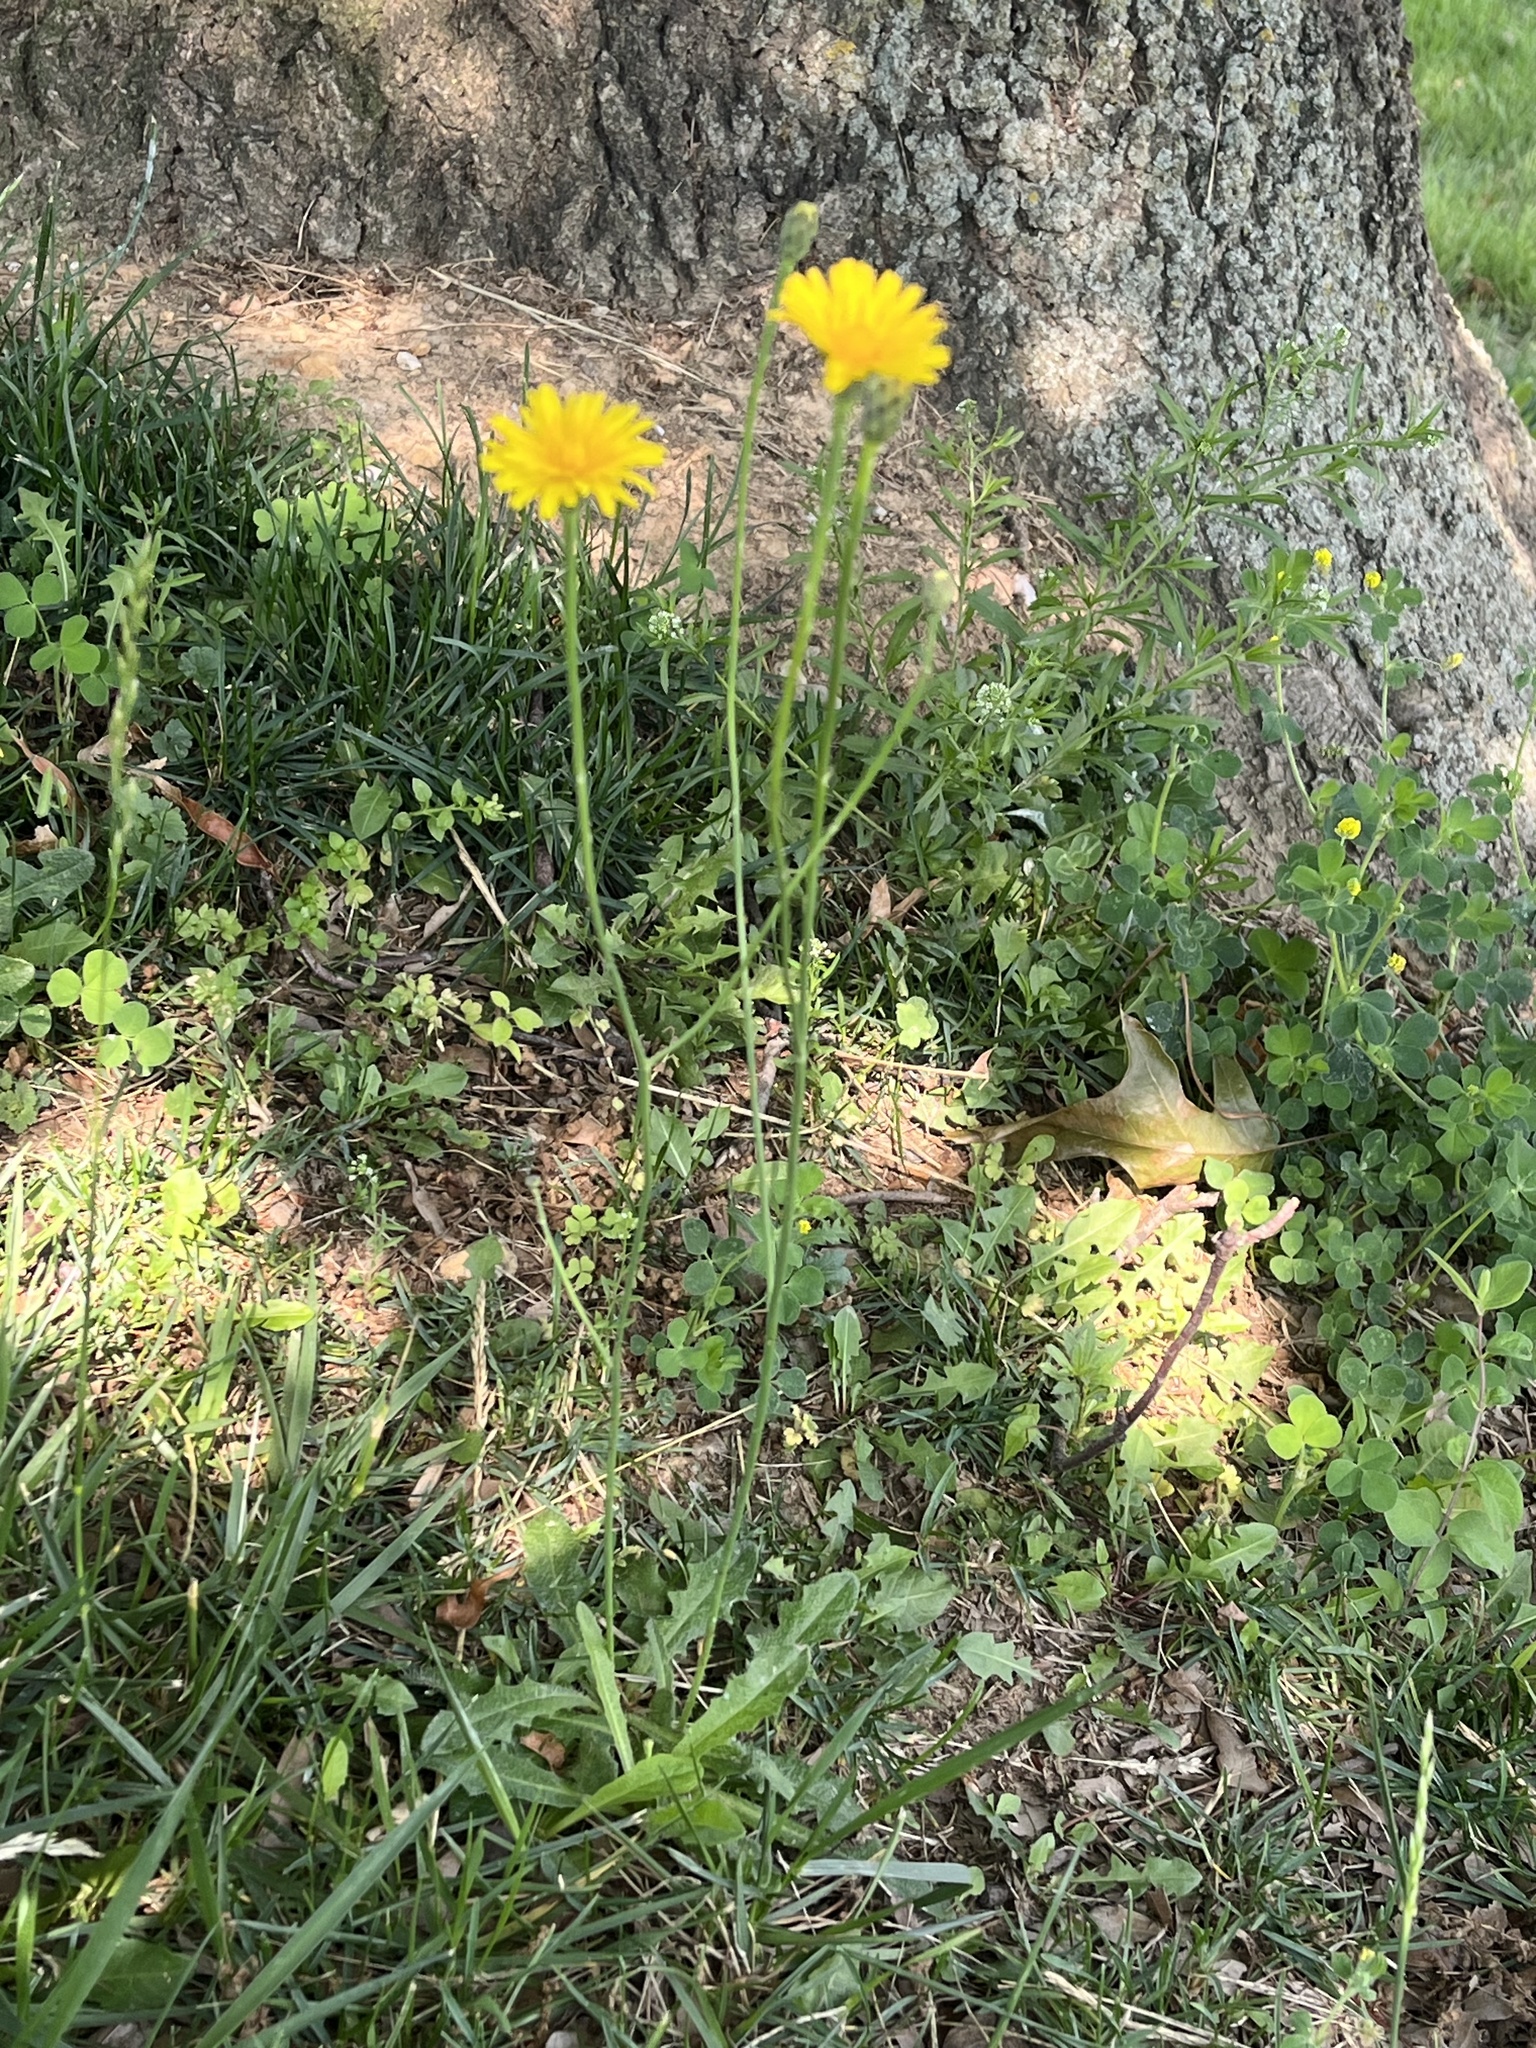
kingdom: Plantae
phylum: Tracheophyta
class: Magnoliopsida
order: Asterales
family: Asteraceae
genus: Hypochaeris
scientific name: Hypochaeris radicata
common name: Flatweed
